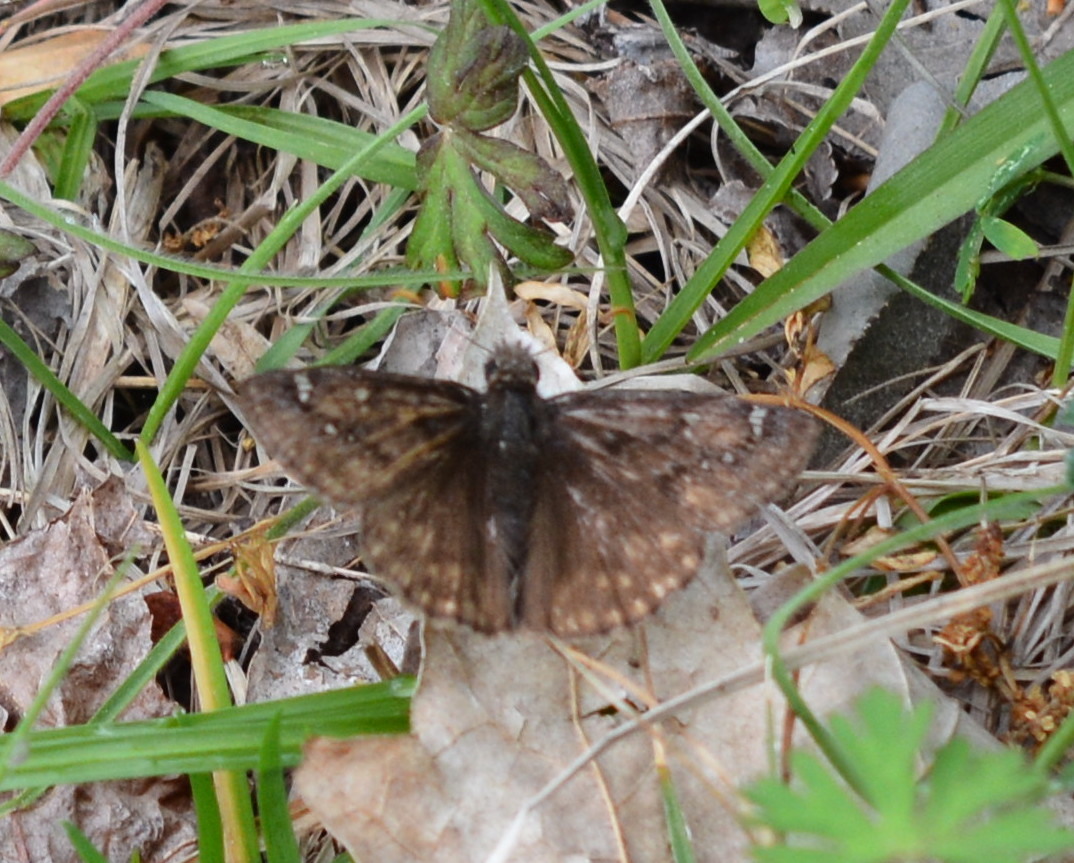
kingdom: Animalia
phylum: Arthropoda
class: Insecta
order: Lepidoptera
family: Hesperiidae
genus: Erynnis
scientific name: Erynnis horatius
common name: Horace's duskywing
